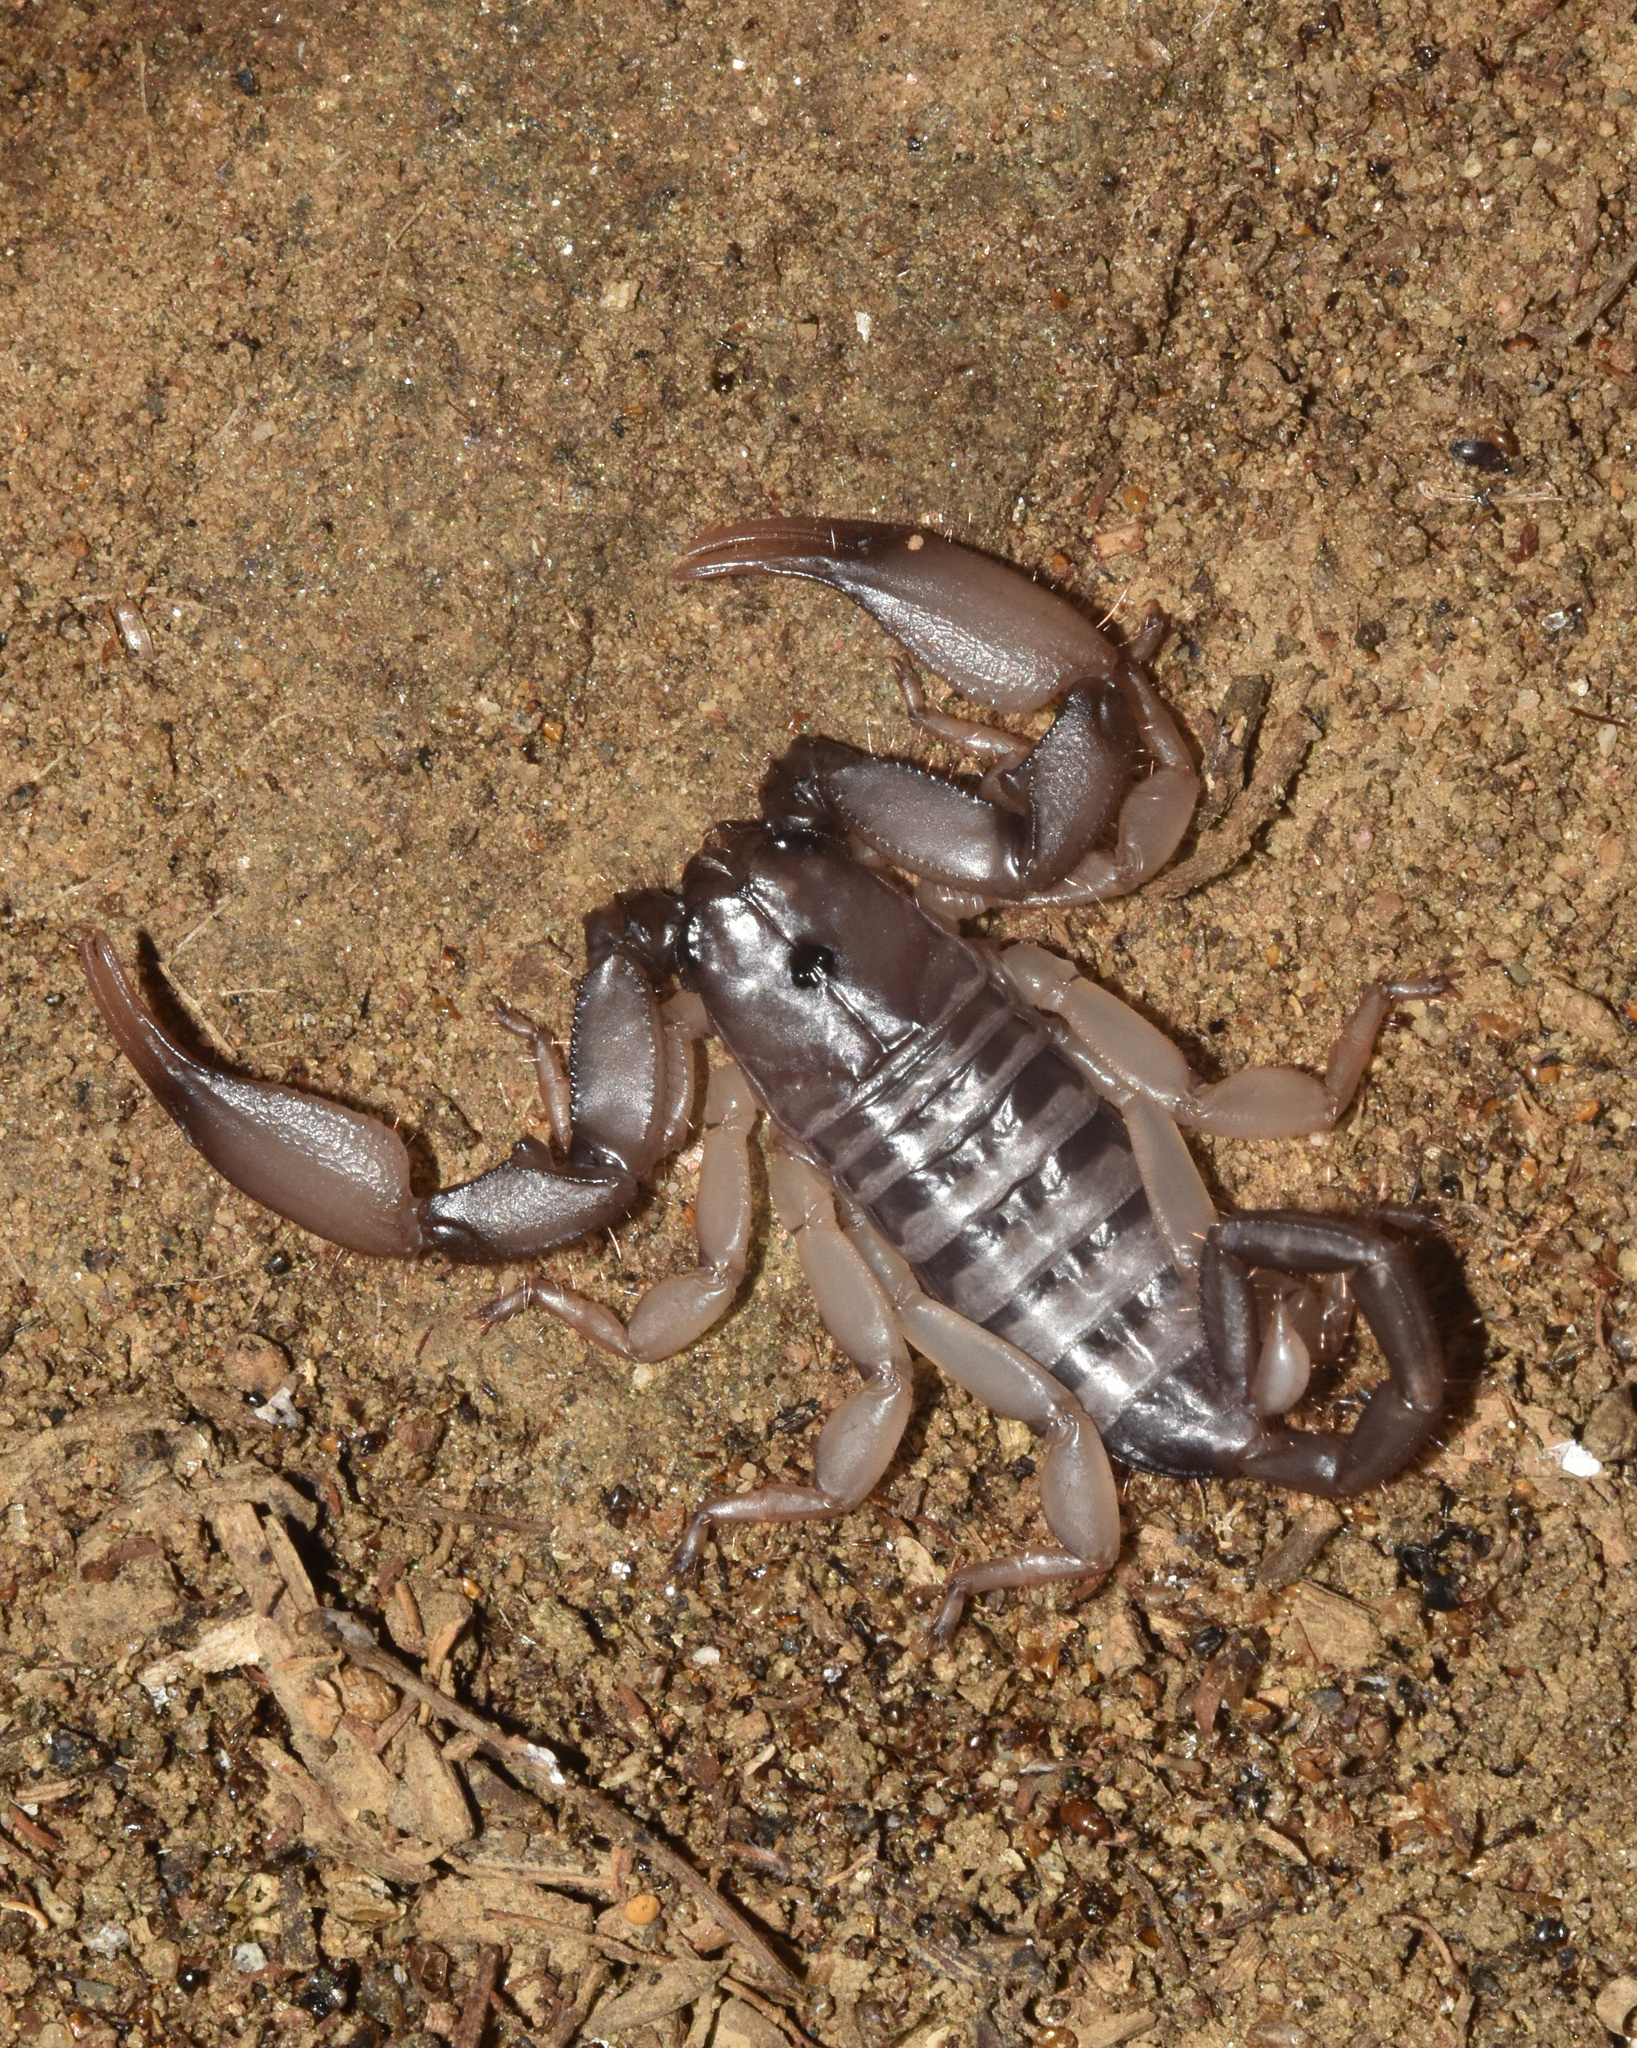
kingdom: Animalia
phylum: Arthropoda
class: Arachnida
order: Scorpiones
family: Hormuridae
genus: Hadogenes
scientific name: Hadogenes trichiurus
